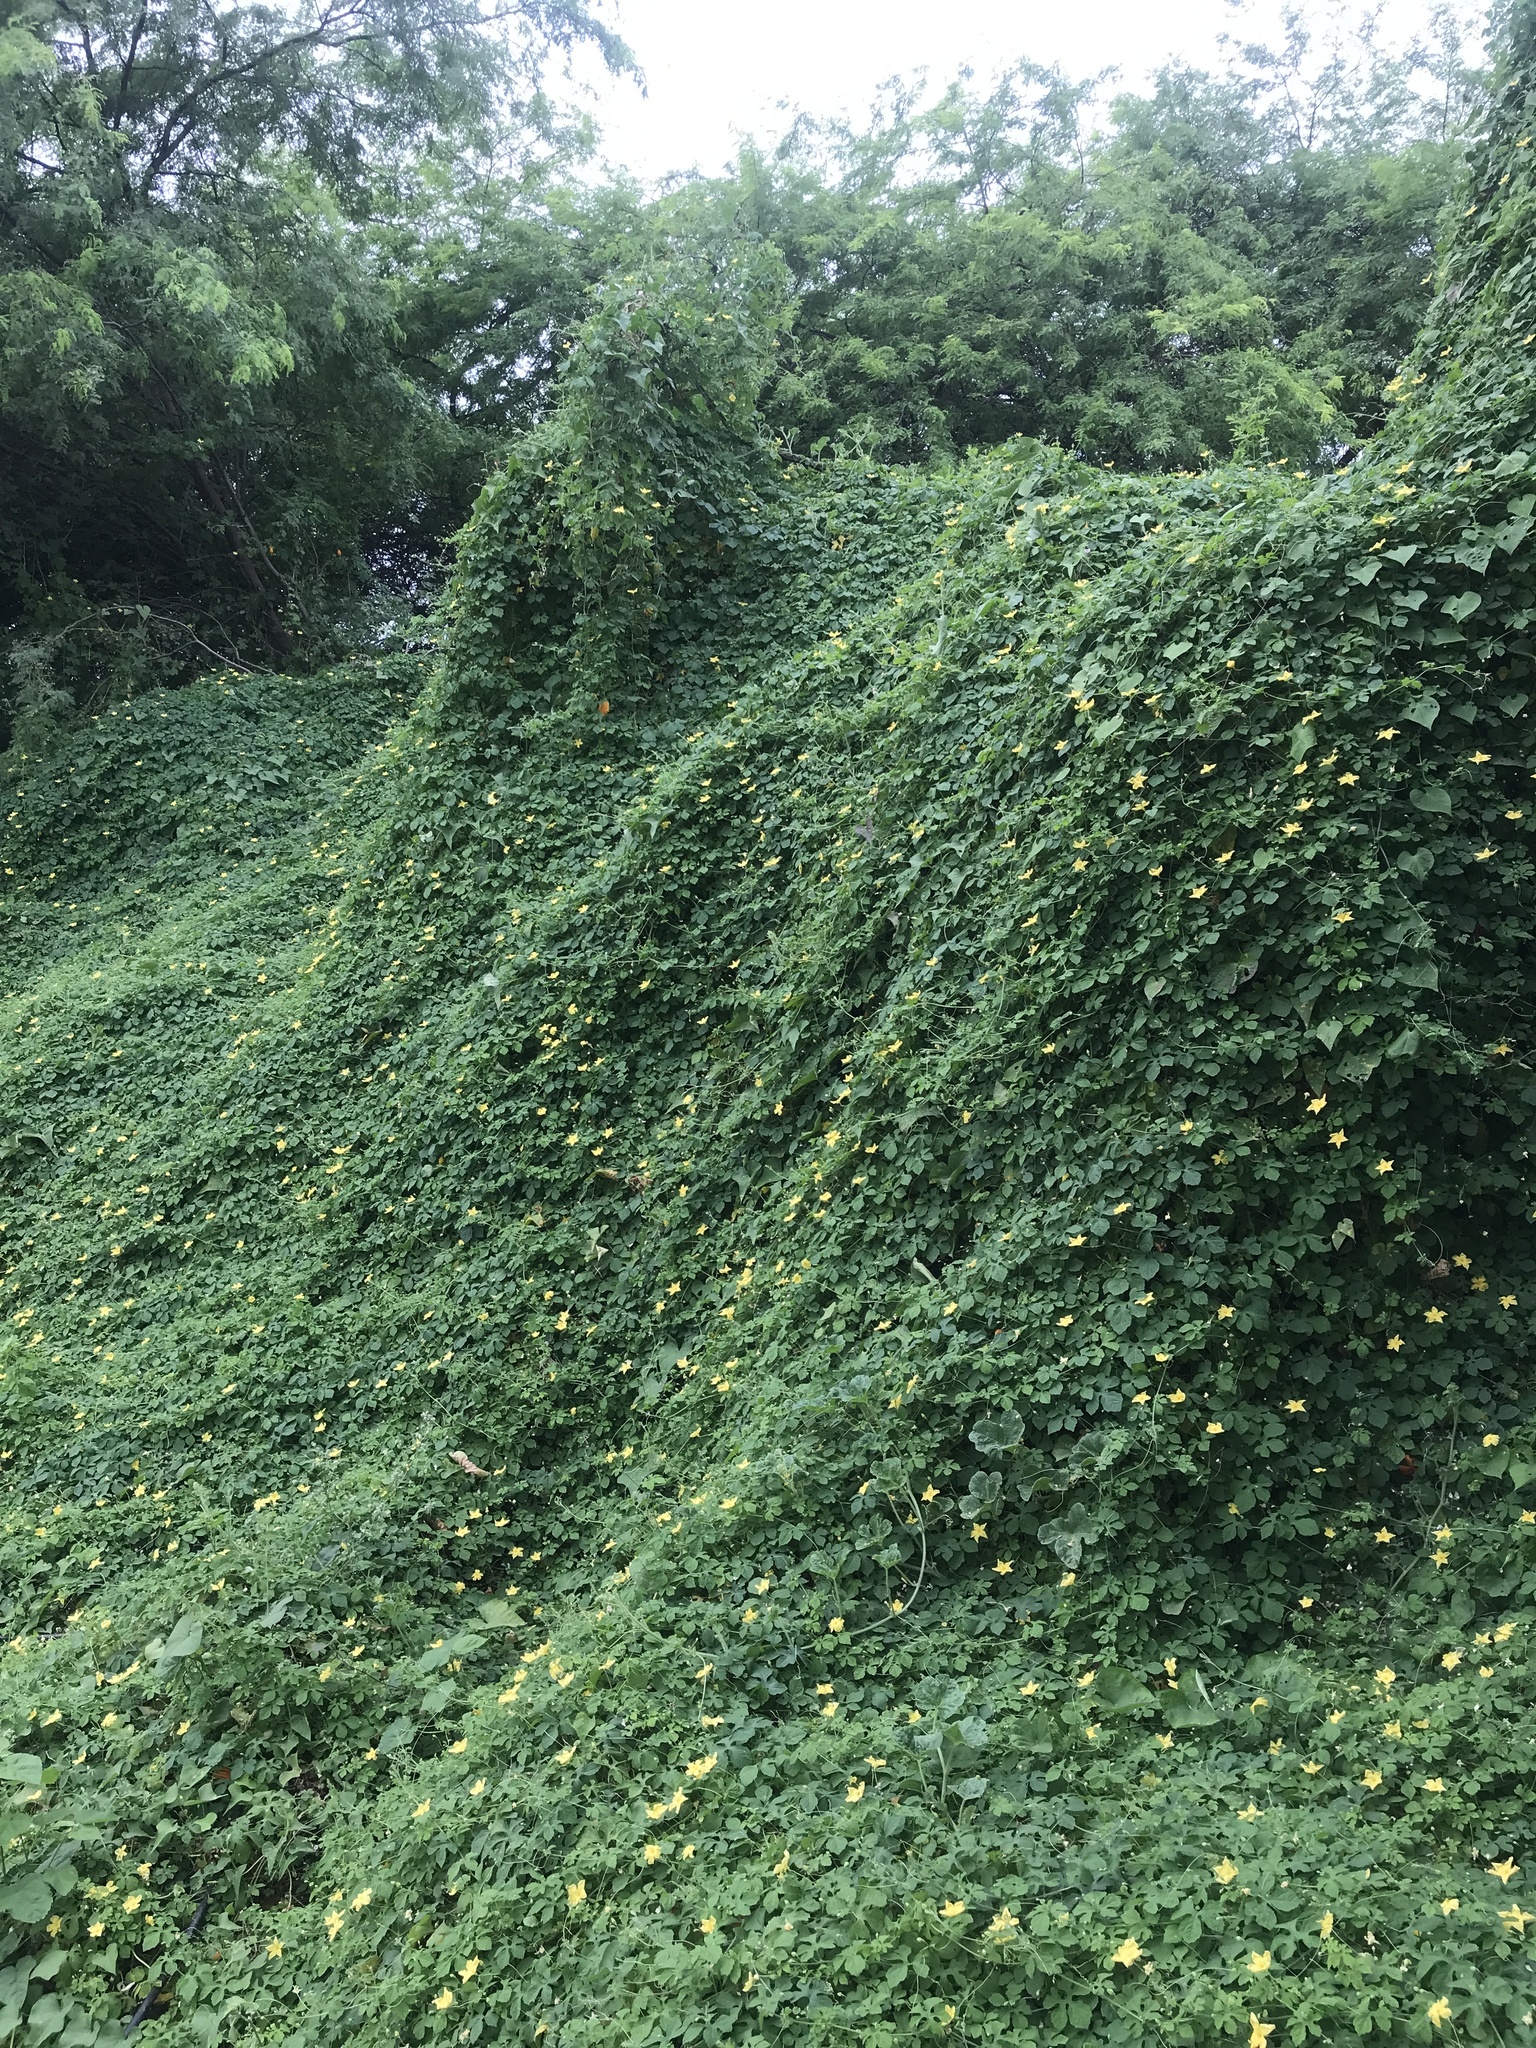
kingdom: Plantae
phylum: Tracheophyta
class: Magnoliopsida
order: Cucurbitales
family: Cucurbitaceae
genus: Momordica
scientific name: Momordica charantia
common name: Balsampear
